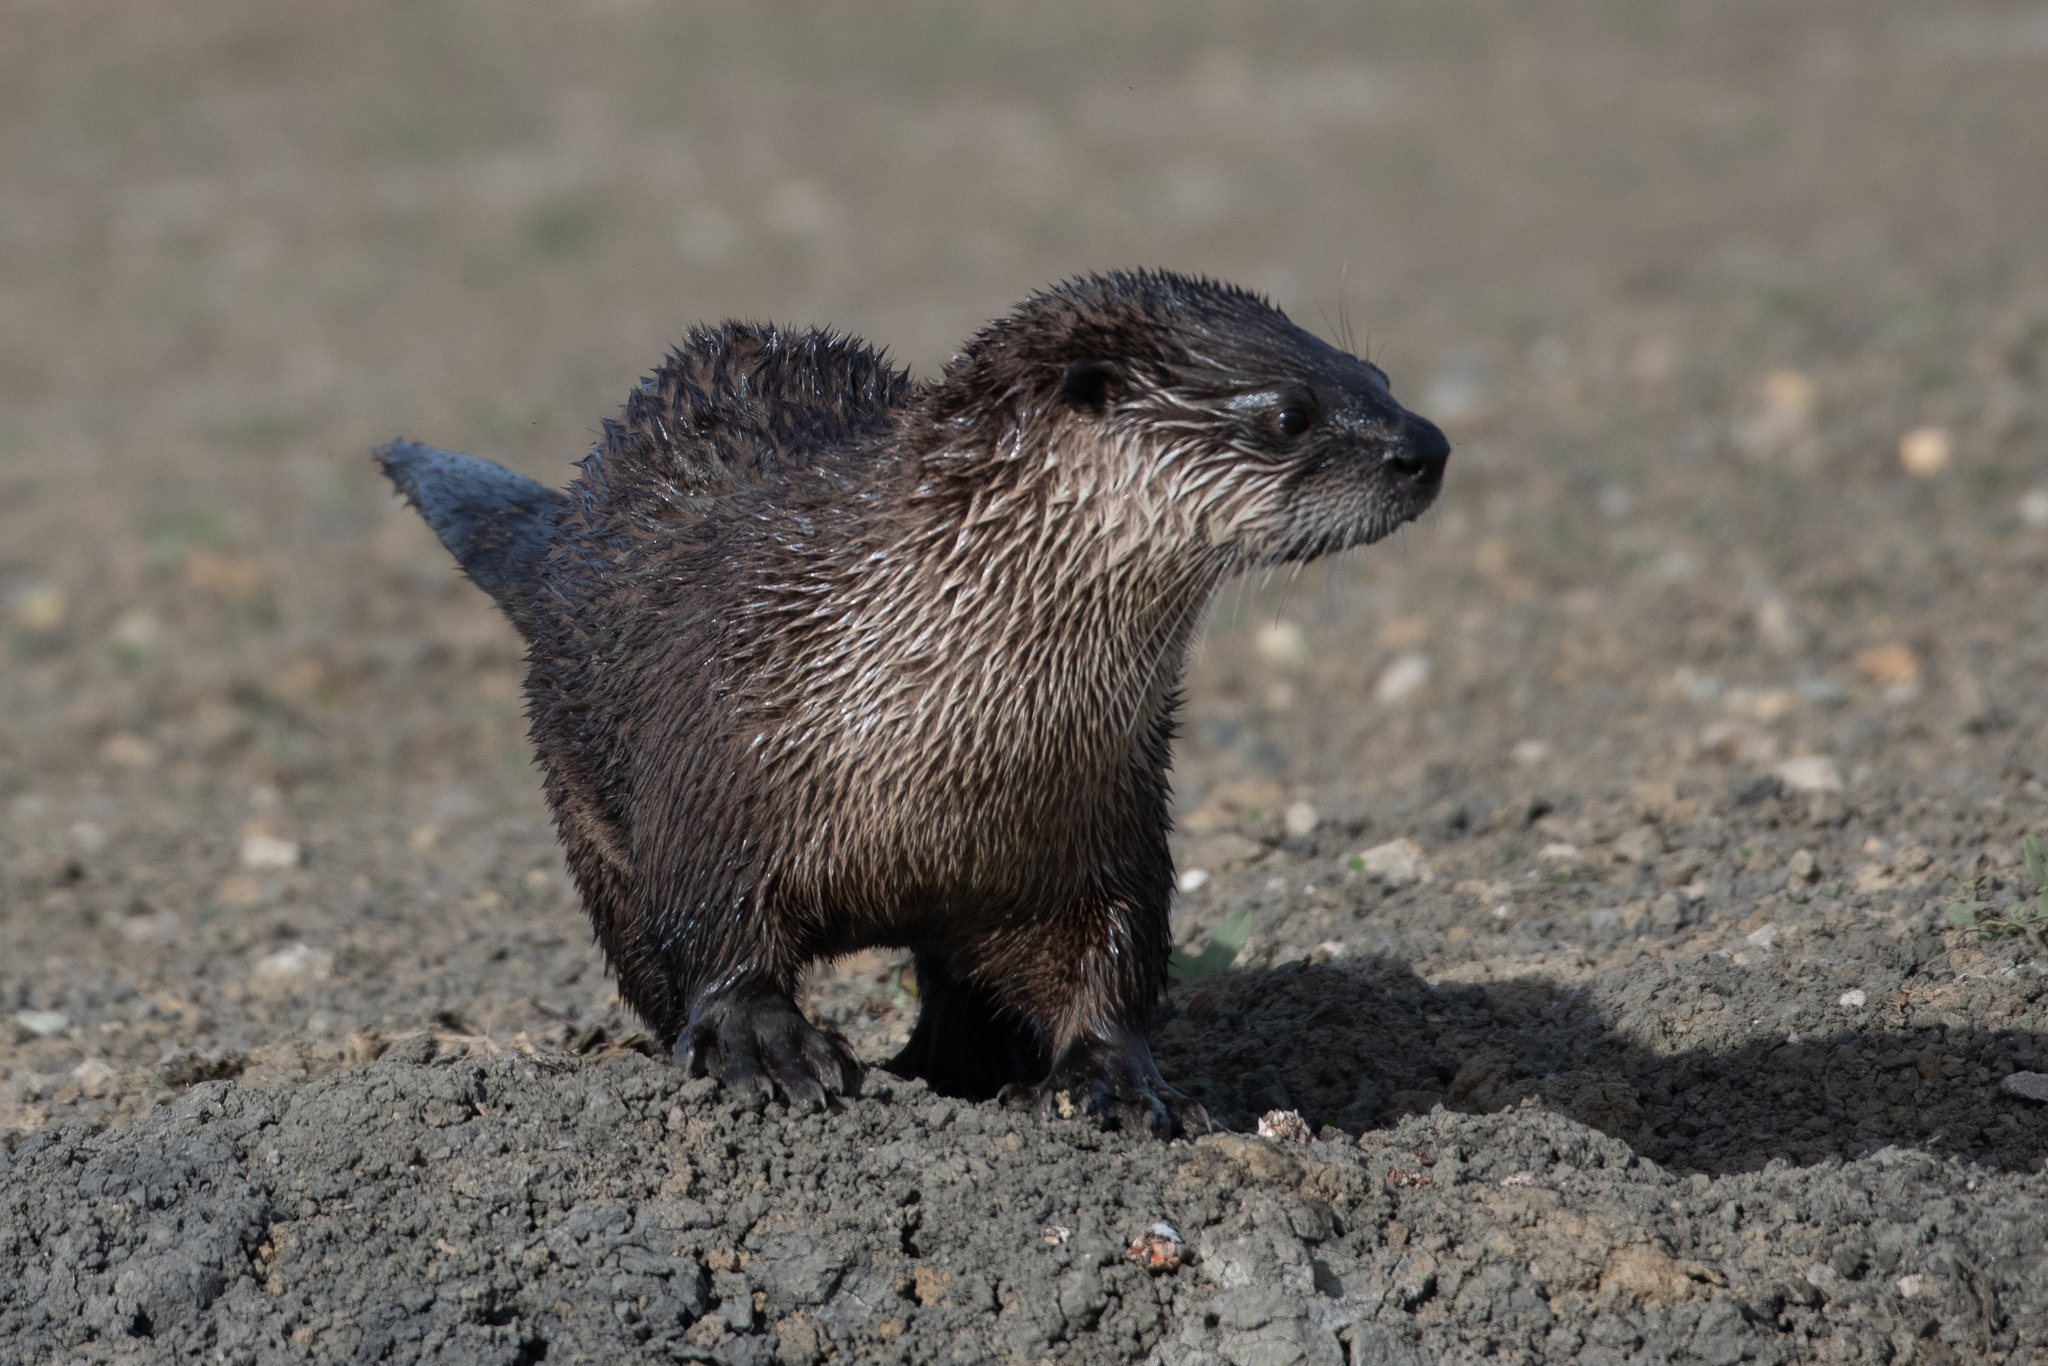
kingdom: Animalia
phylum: Chordata
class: Mammalia
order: Carnivora
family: Mustelidae
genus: Lontra
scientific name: Lontra canadensis
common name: North american river otter
